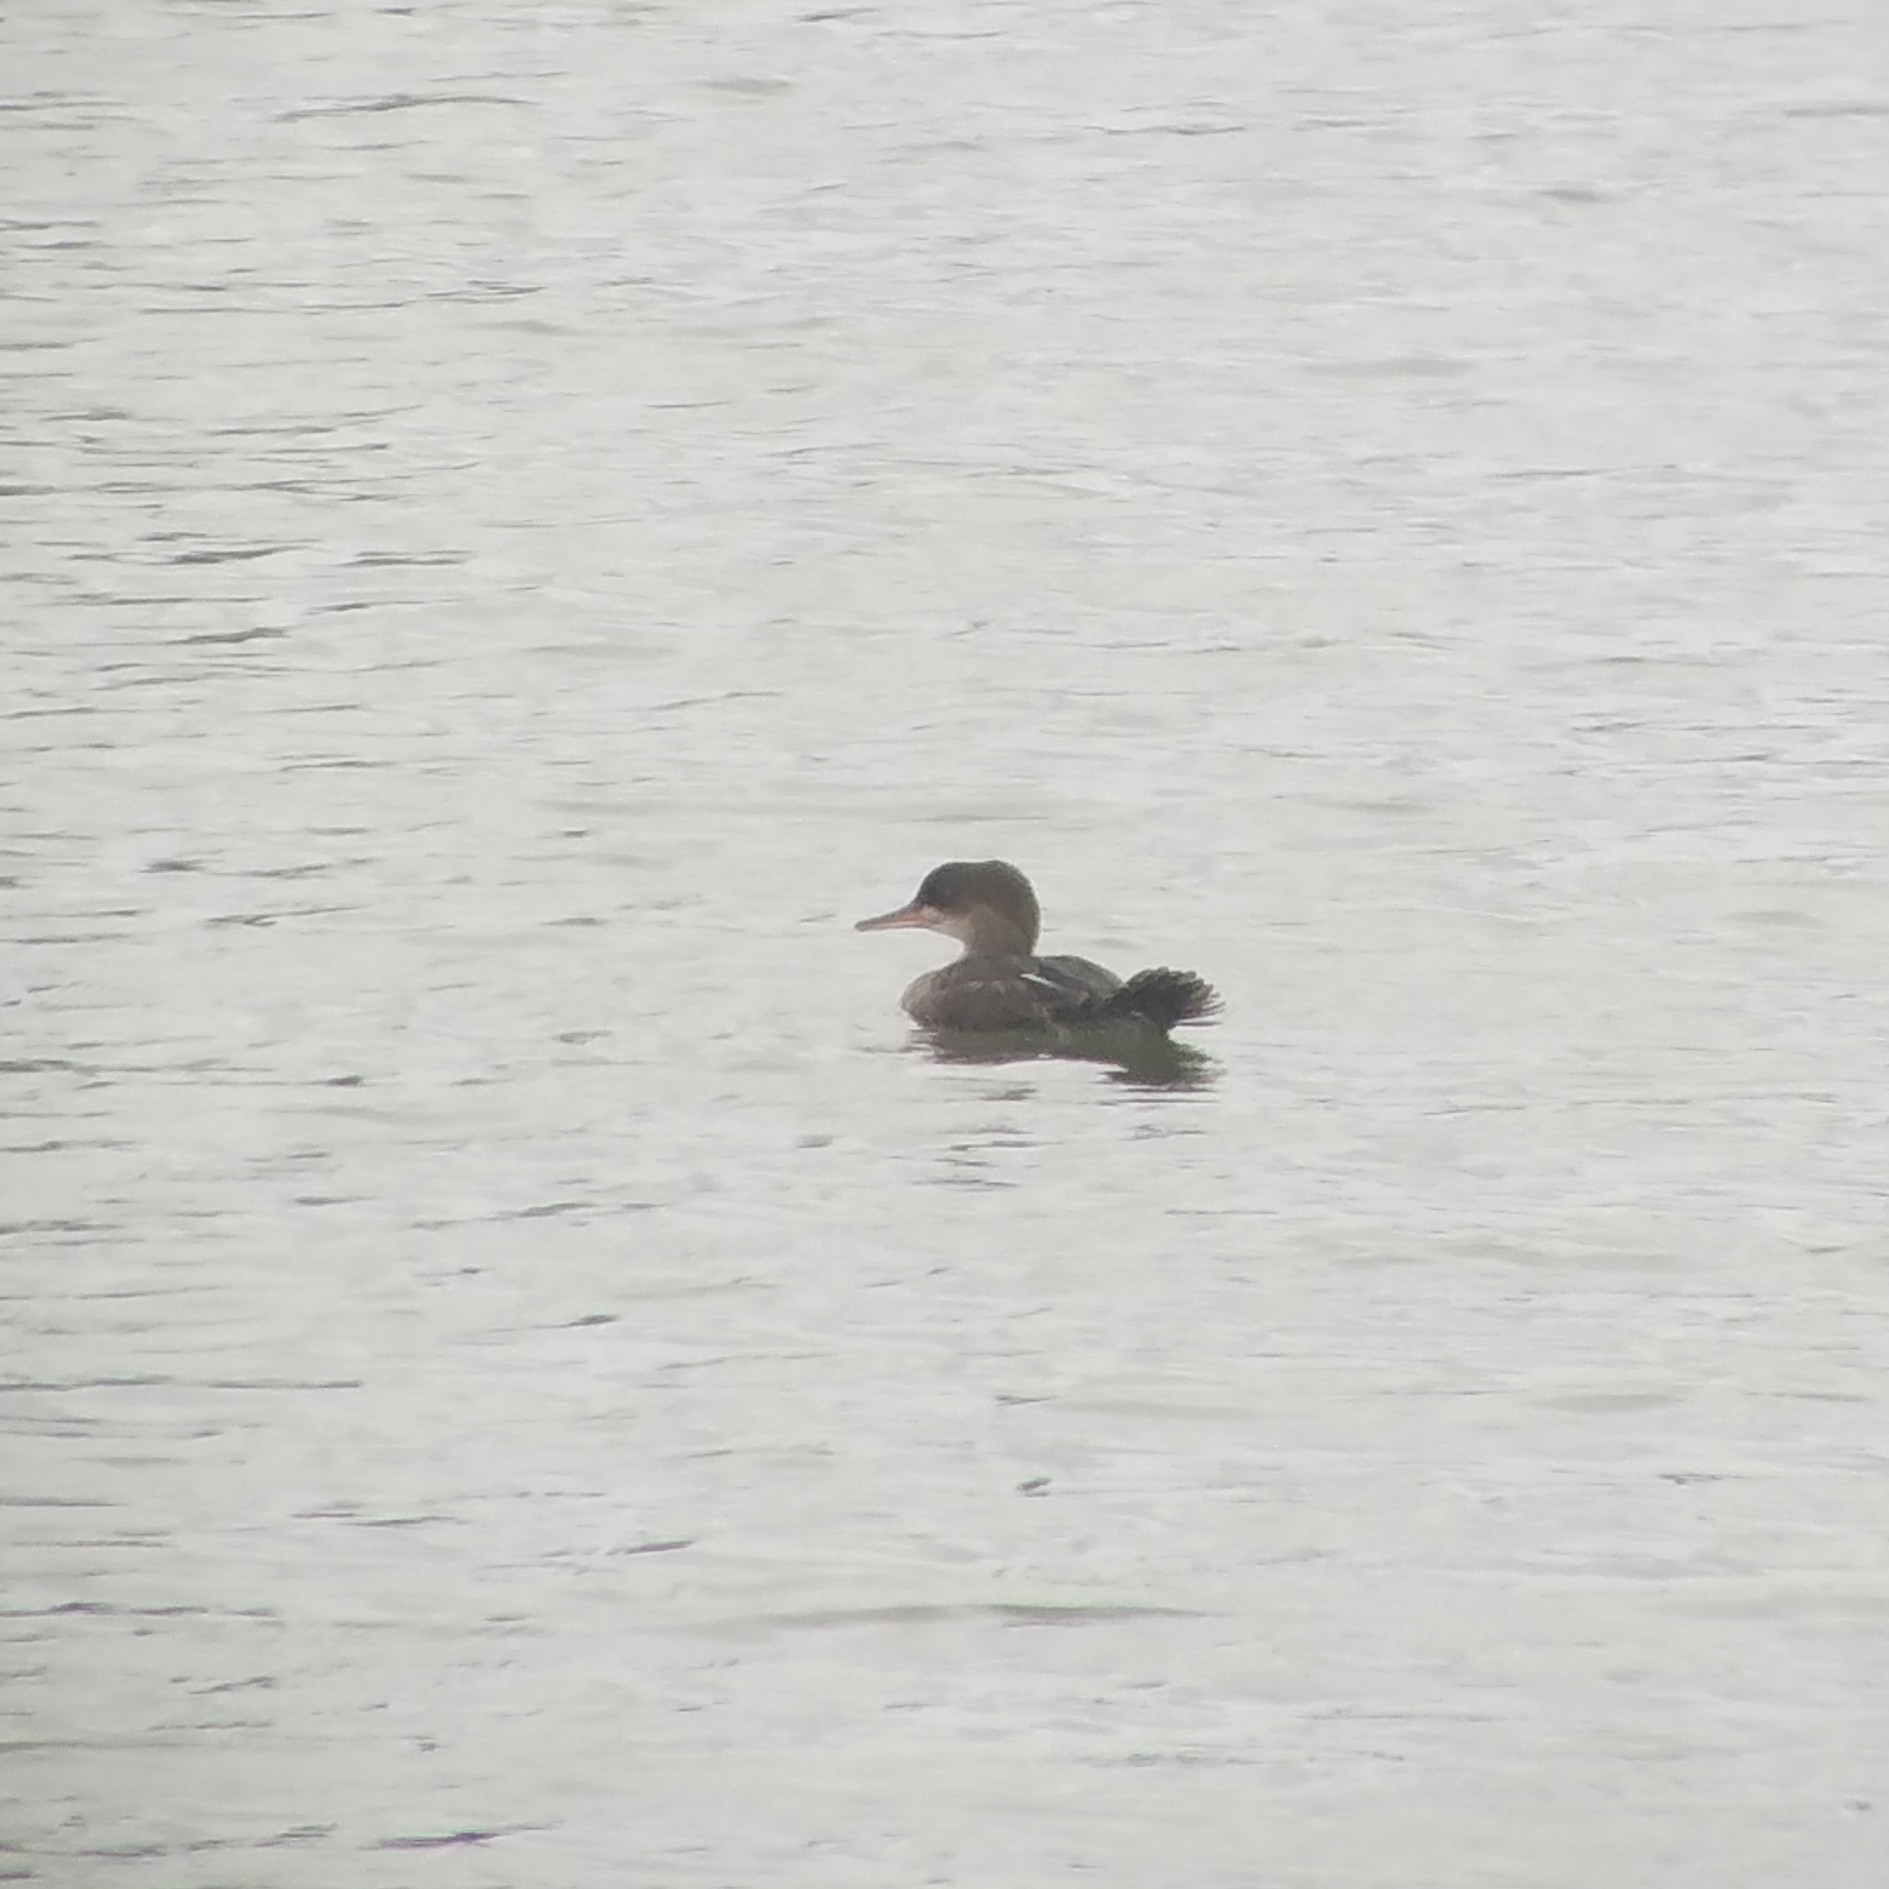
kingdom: Animalia
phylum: Chordata
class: Aves
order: Anseriformes
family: Anatidae
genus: Lophodytes
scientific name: Lophodytes cucullatus
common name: Hooded merganser
